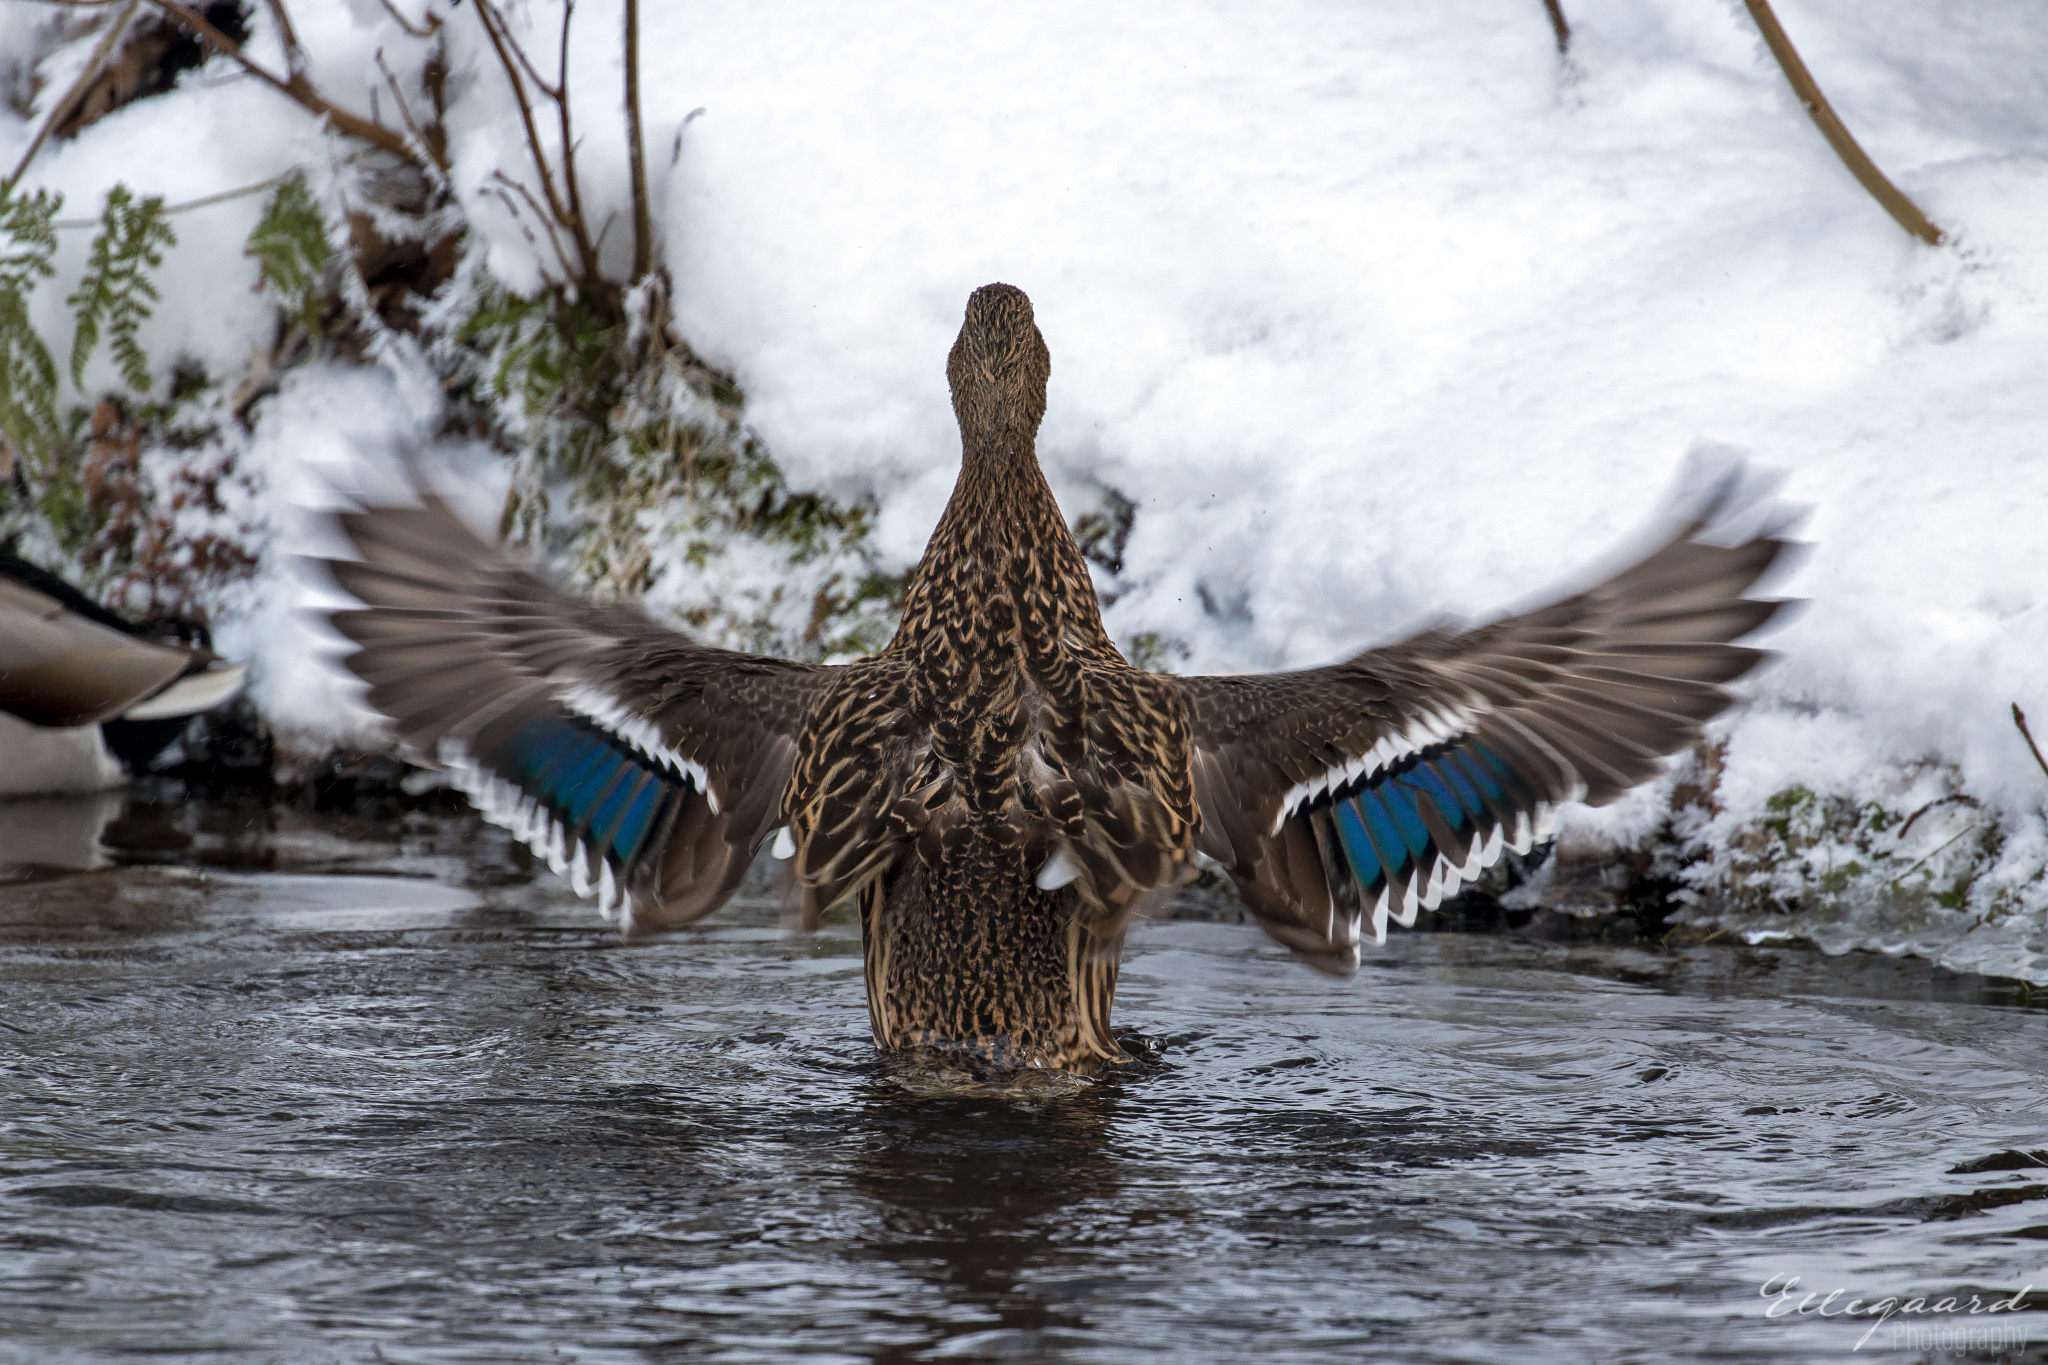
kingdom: Animalia
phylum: Chordata
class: Aves
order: Anseriformes
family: Anatidae
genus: Anas
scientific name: Anas platyrhynchos
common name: Mallard
